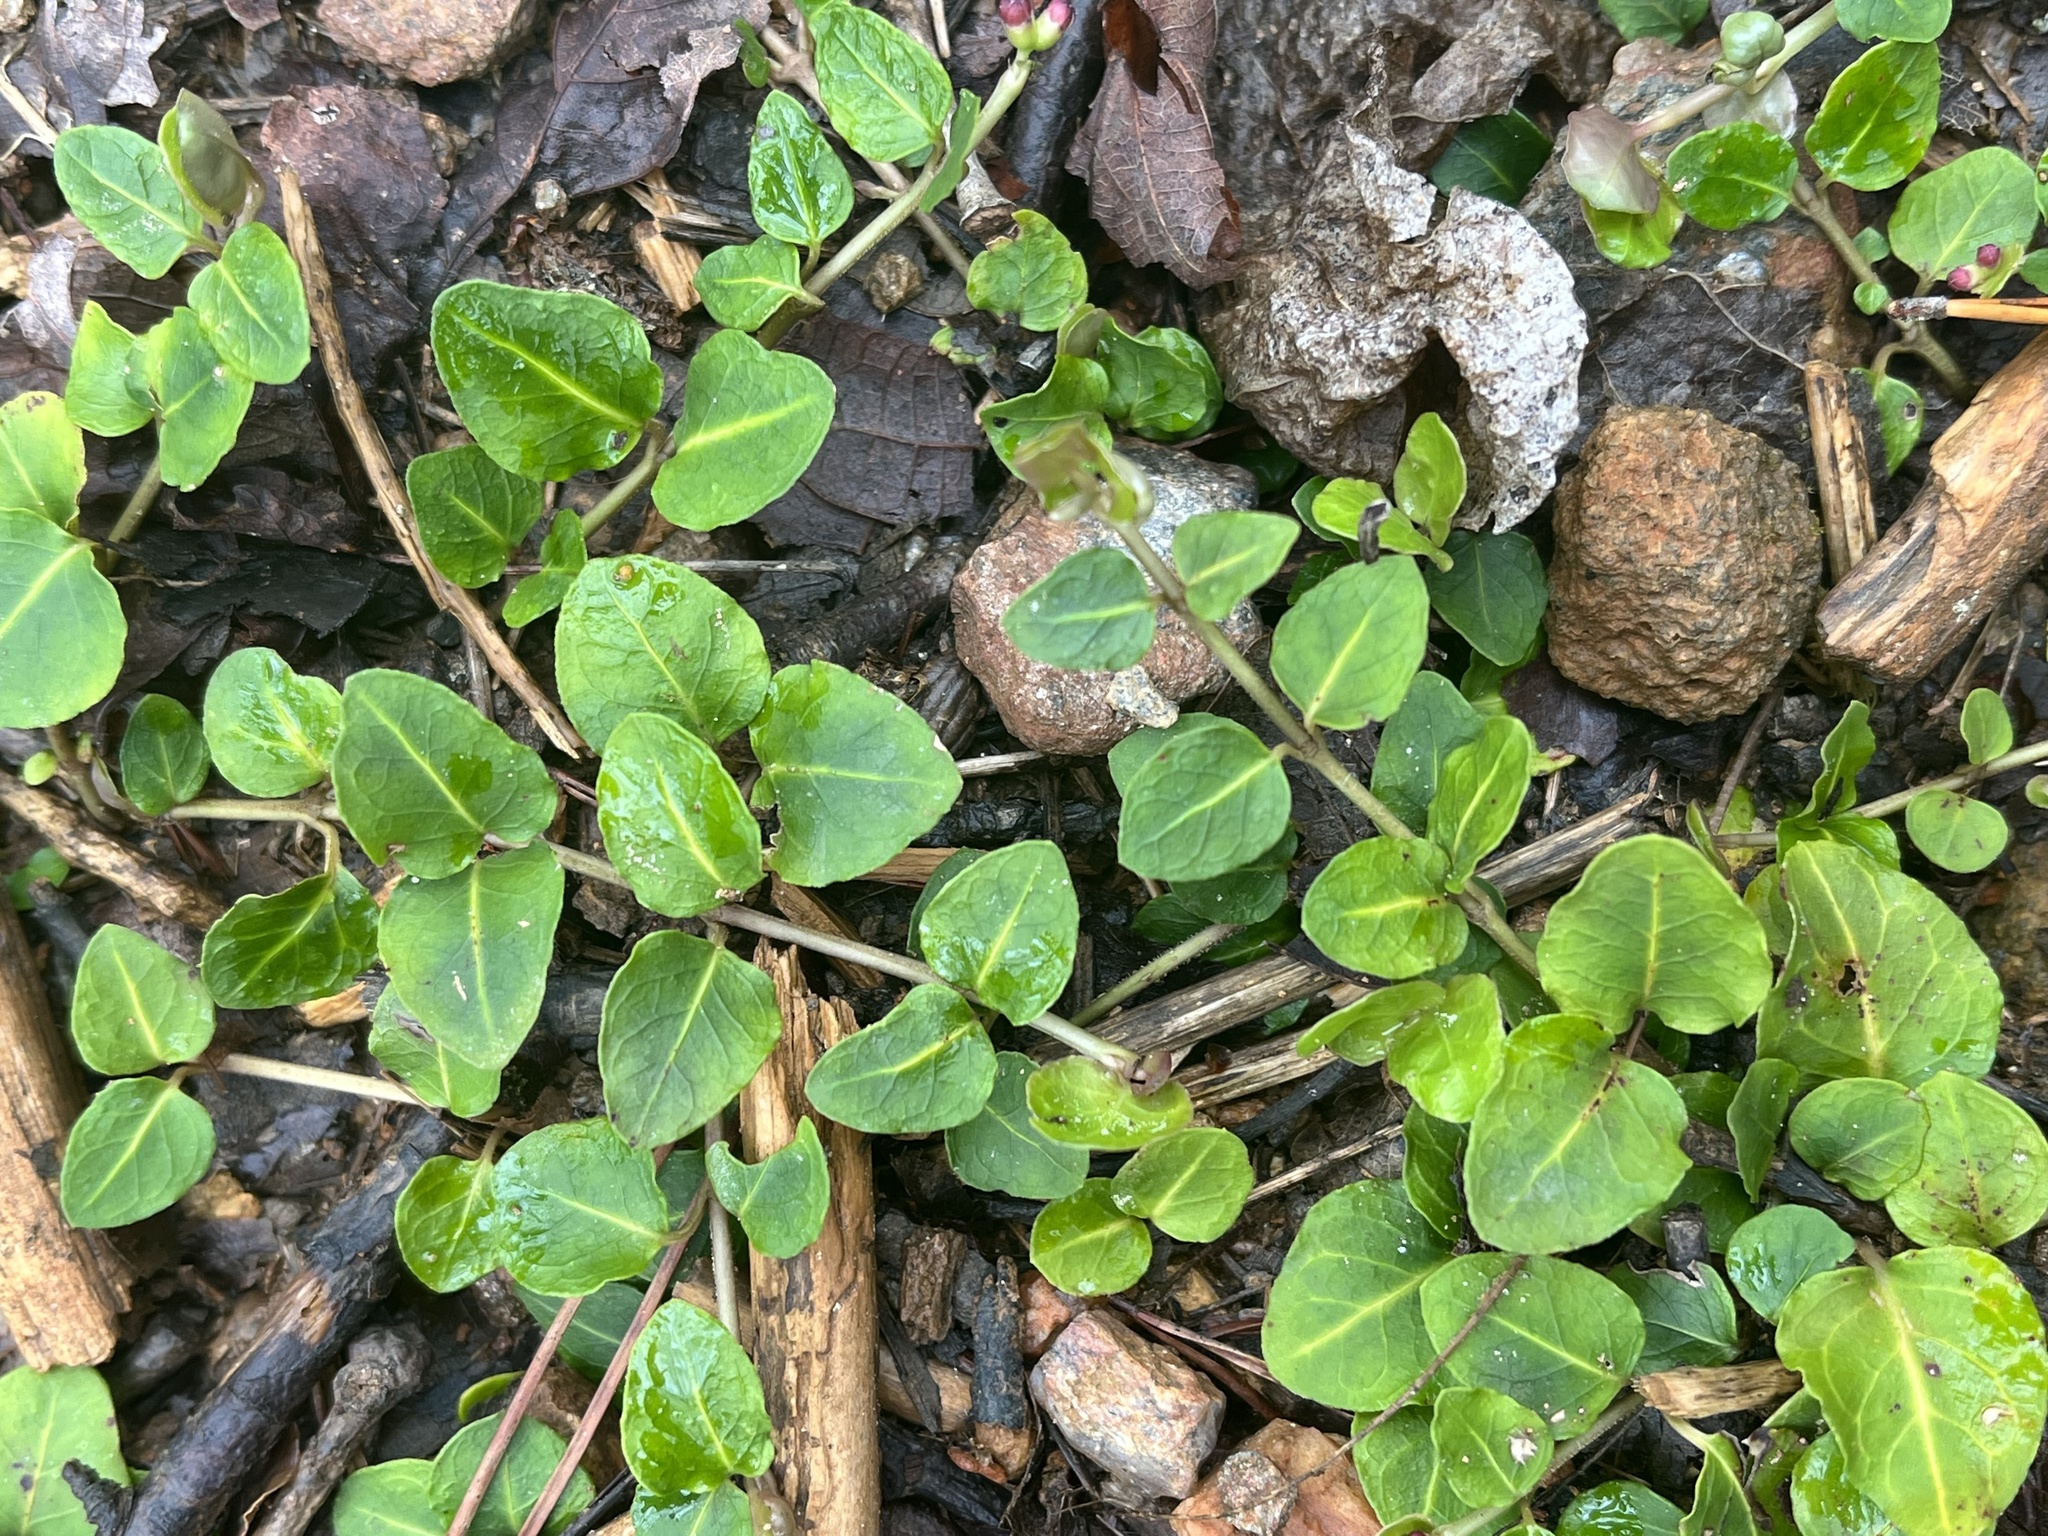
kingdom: Plantae
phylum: Tracheophyta
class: Magnoliopsida
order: Gentianales
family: Rubiaceae
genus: Mitchella
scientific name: Mitchella repens
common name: Partridge-berry
